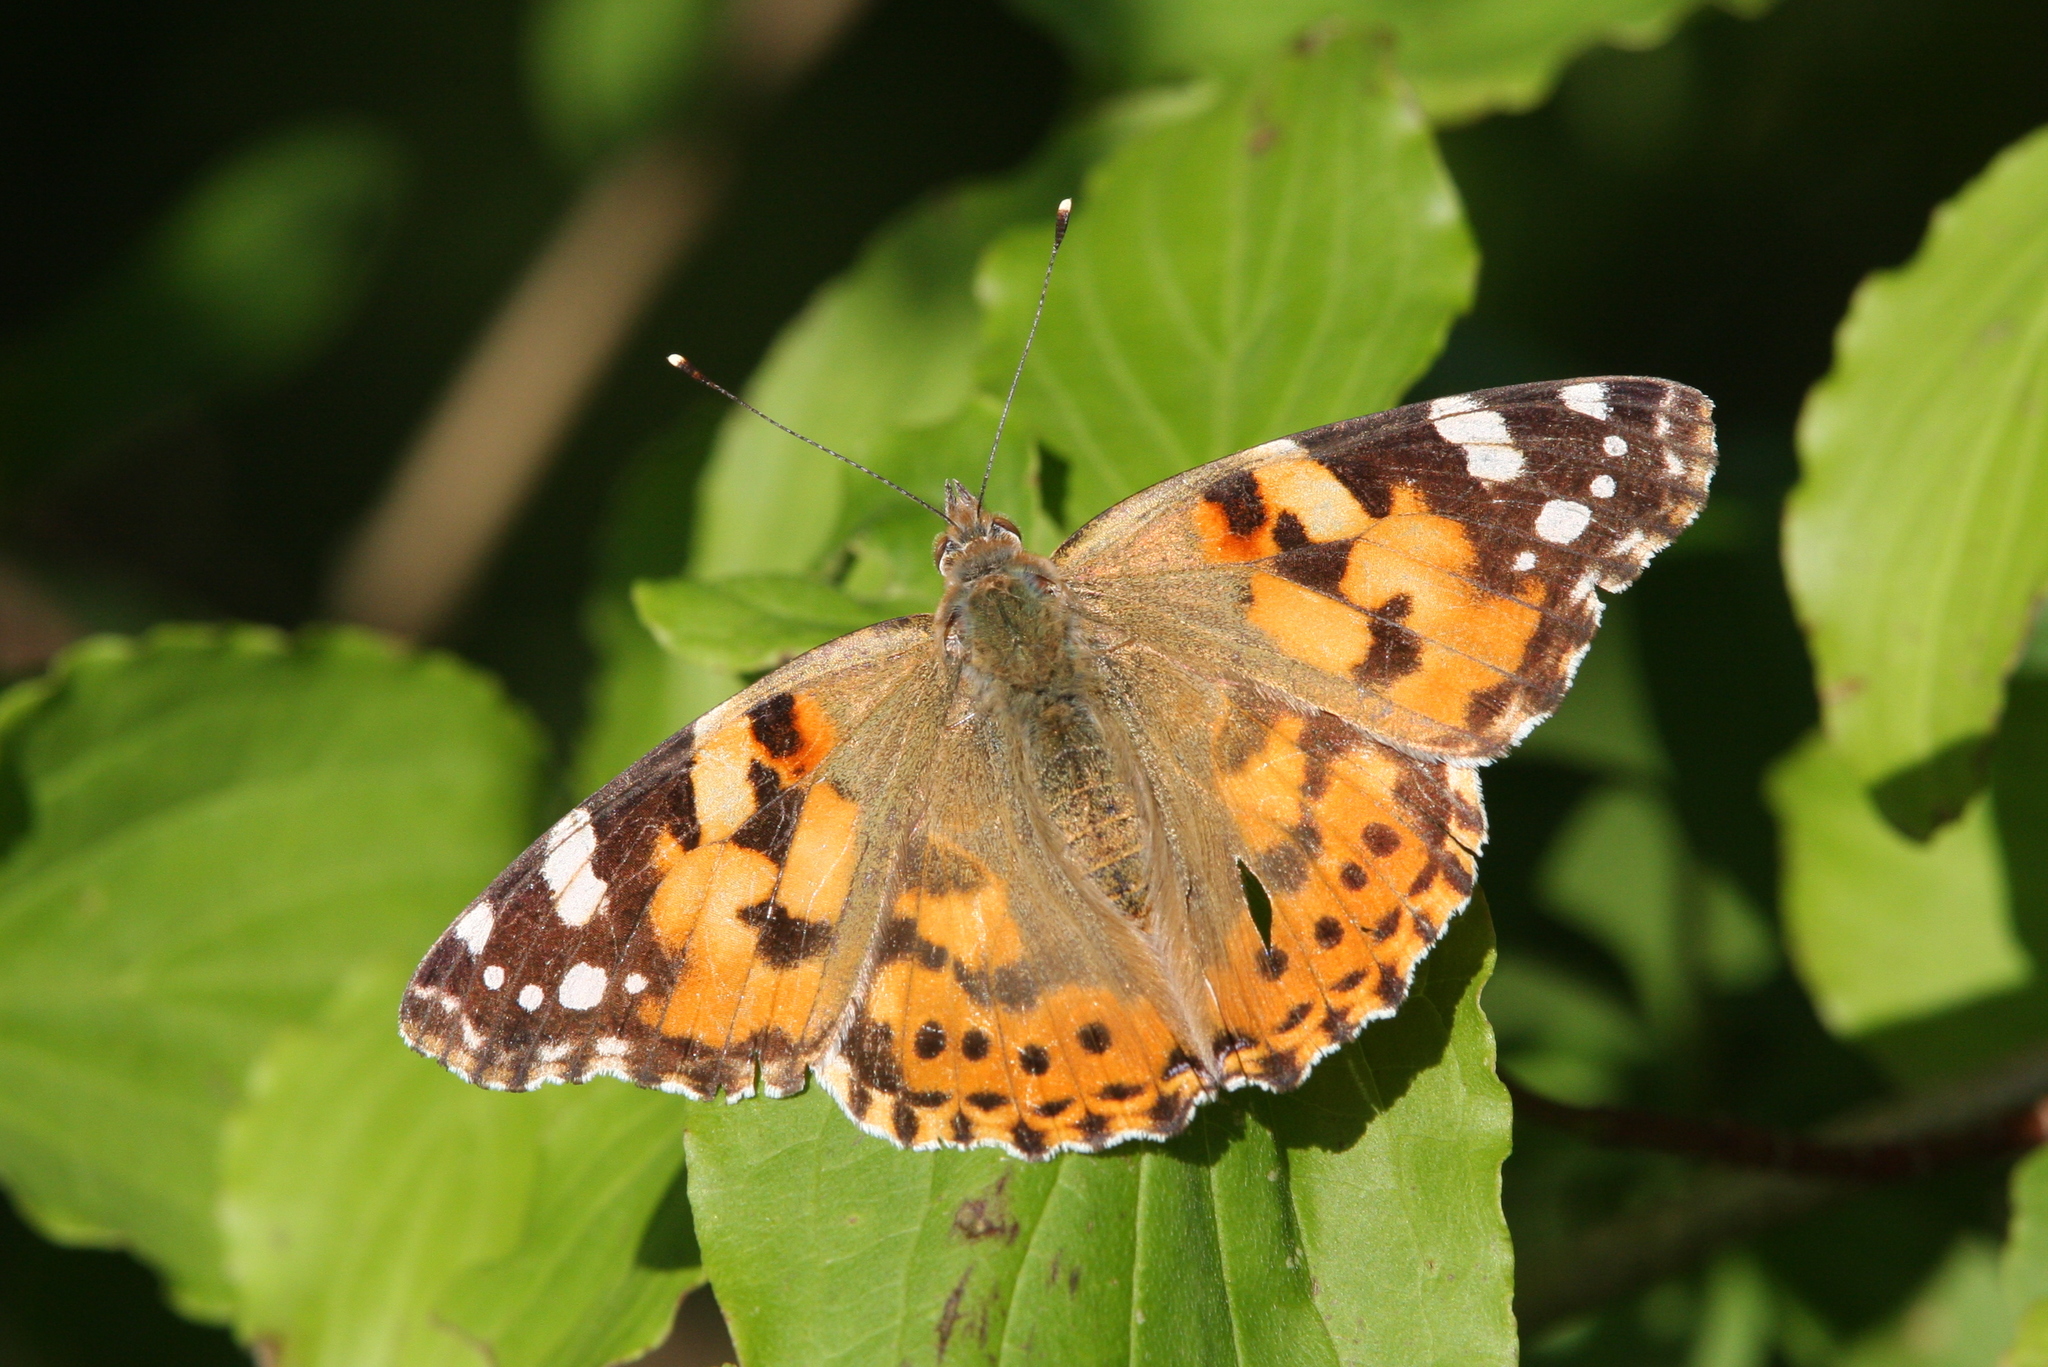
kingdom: Animalia
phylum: Arthropoda
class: Insecta
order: Lepidoptera
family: Nymphalidae
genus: Vanessa
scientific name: Vanessa cardui
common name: Painted lady
